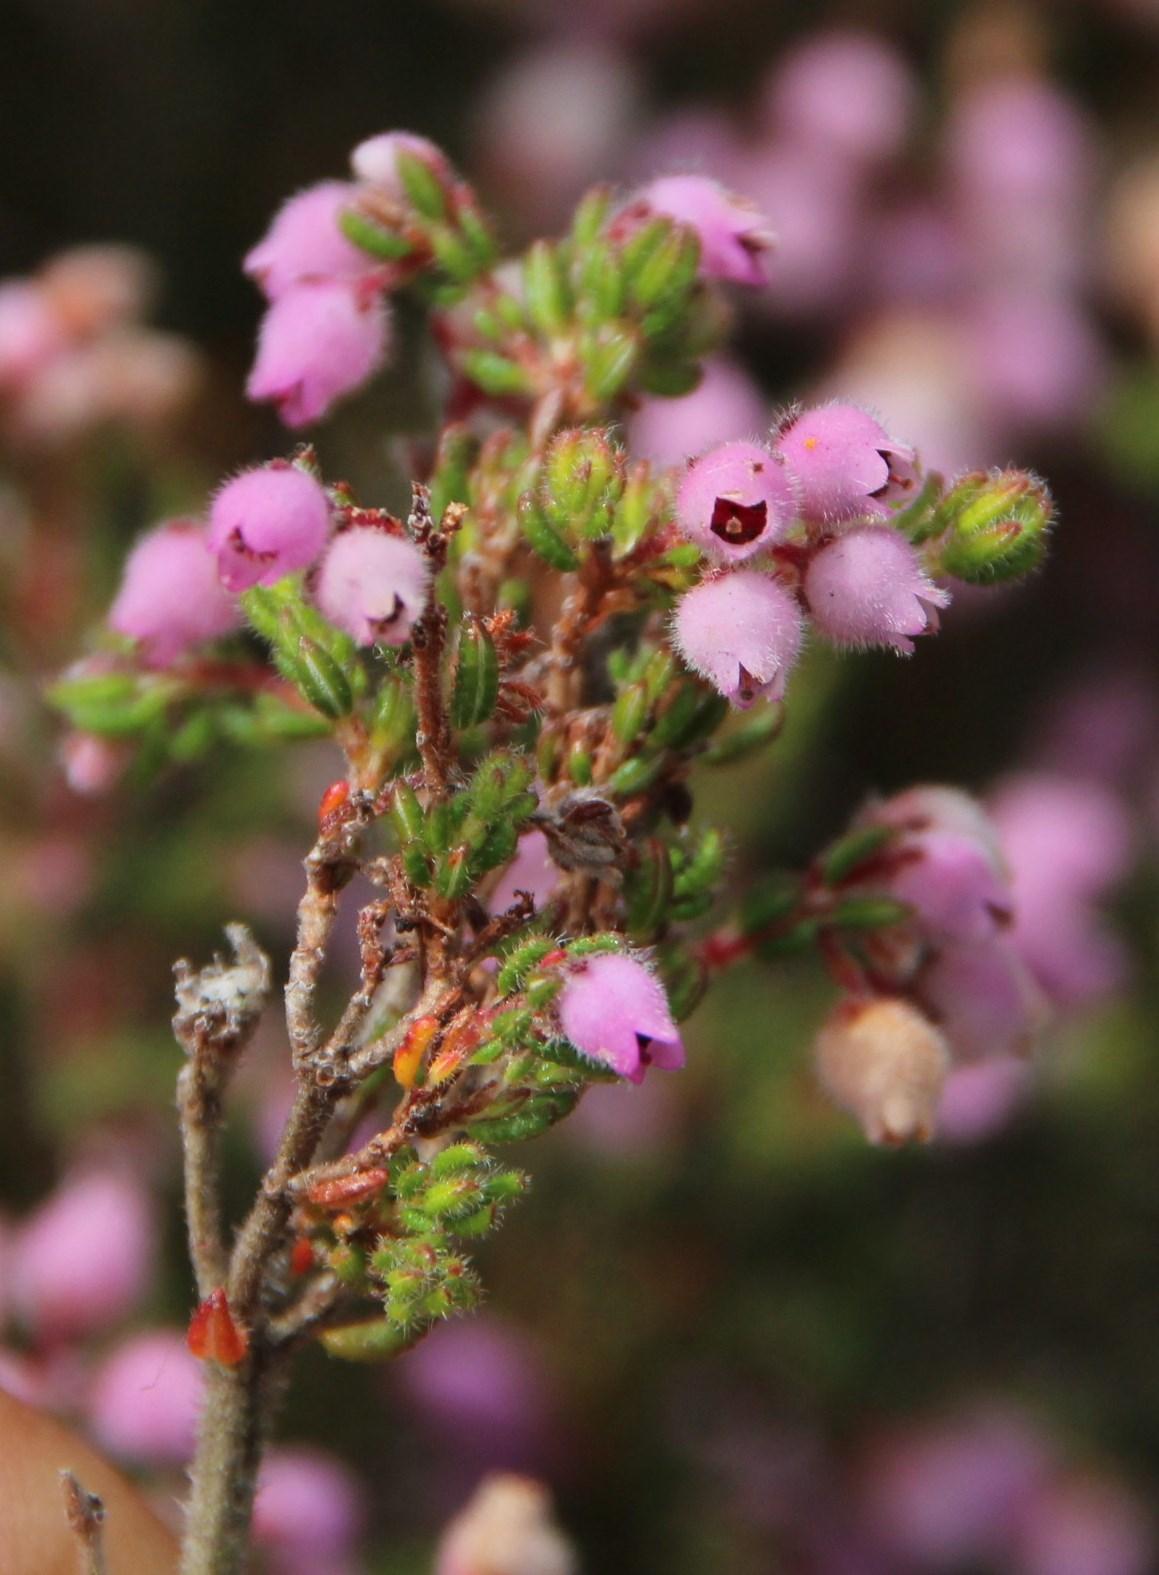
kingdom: Plantae
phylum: Tracheophyta
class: Magnoliopsida
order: Ericales
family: Ericaceae
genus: Erica
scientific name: Erica hirtiflora
